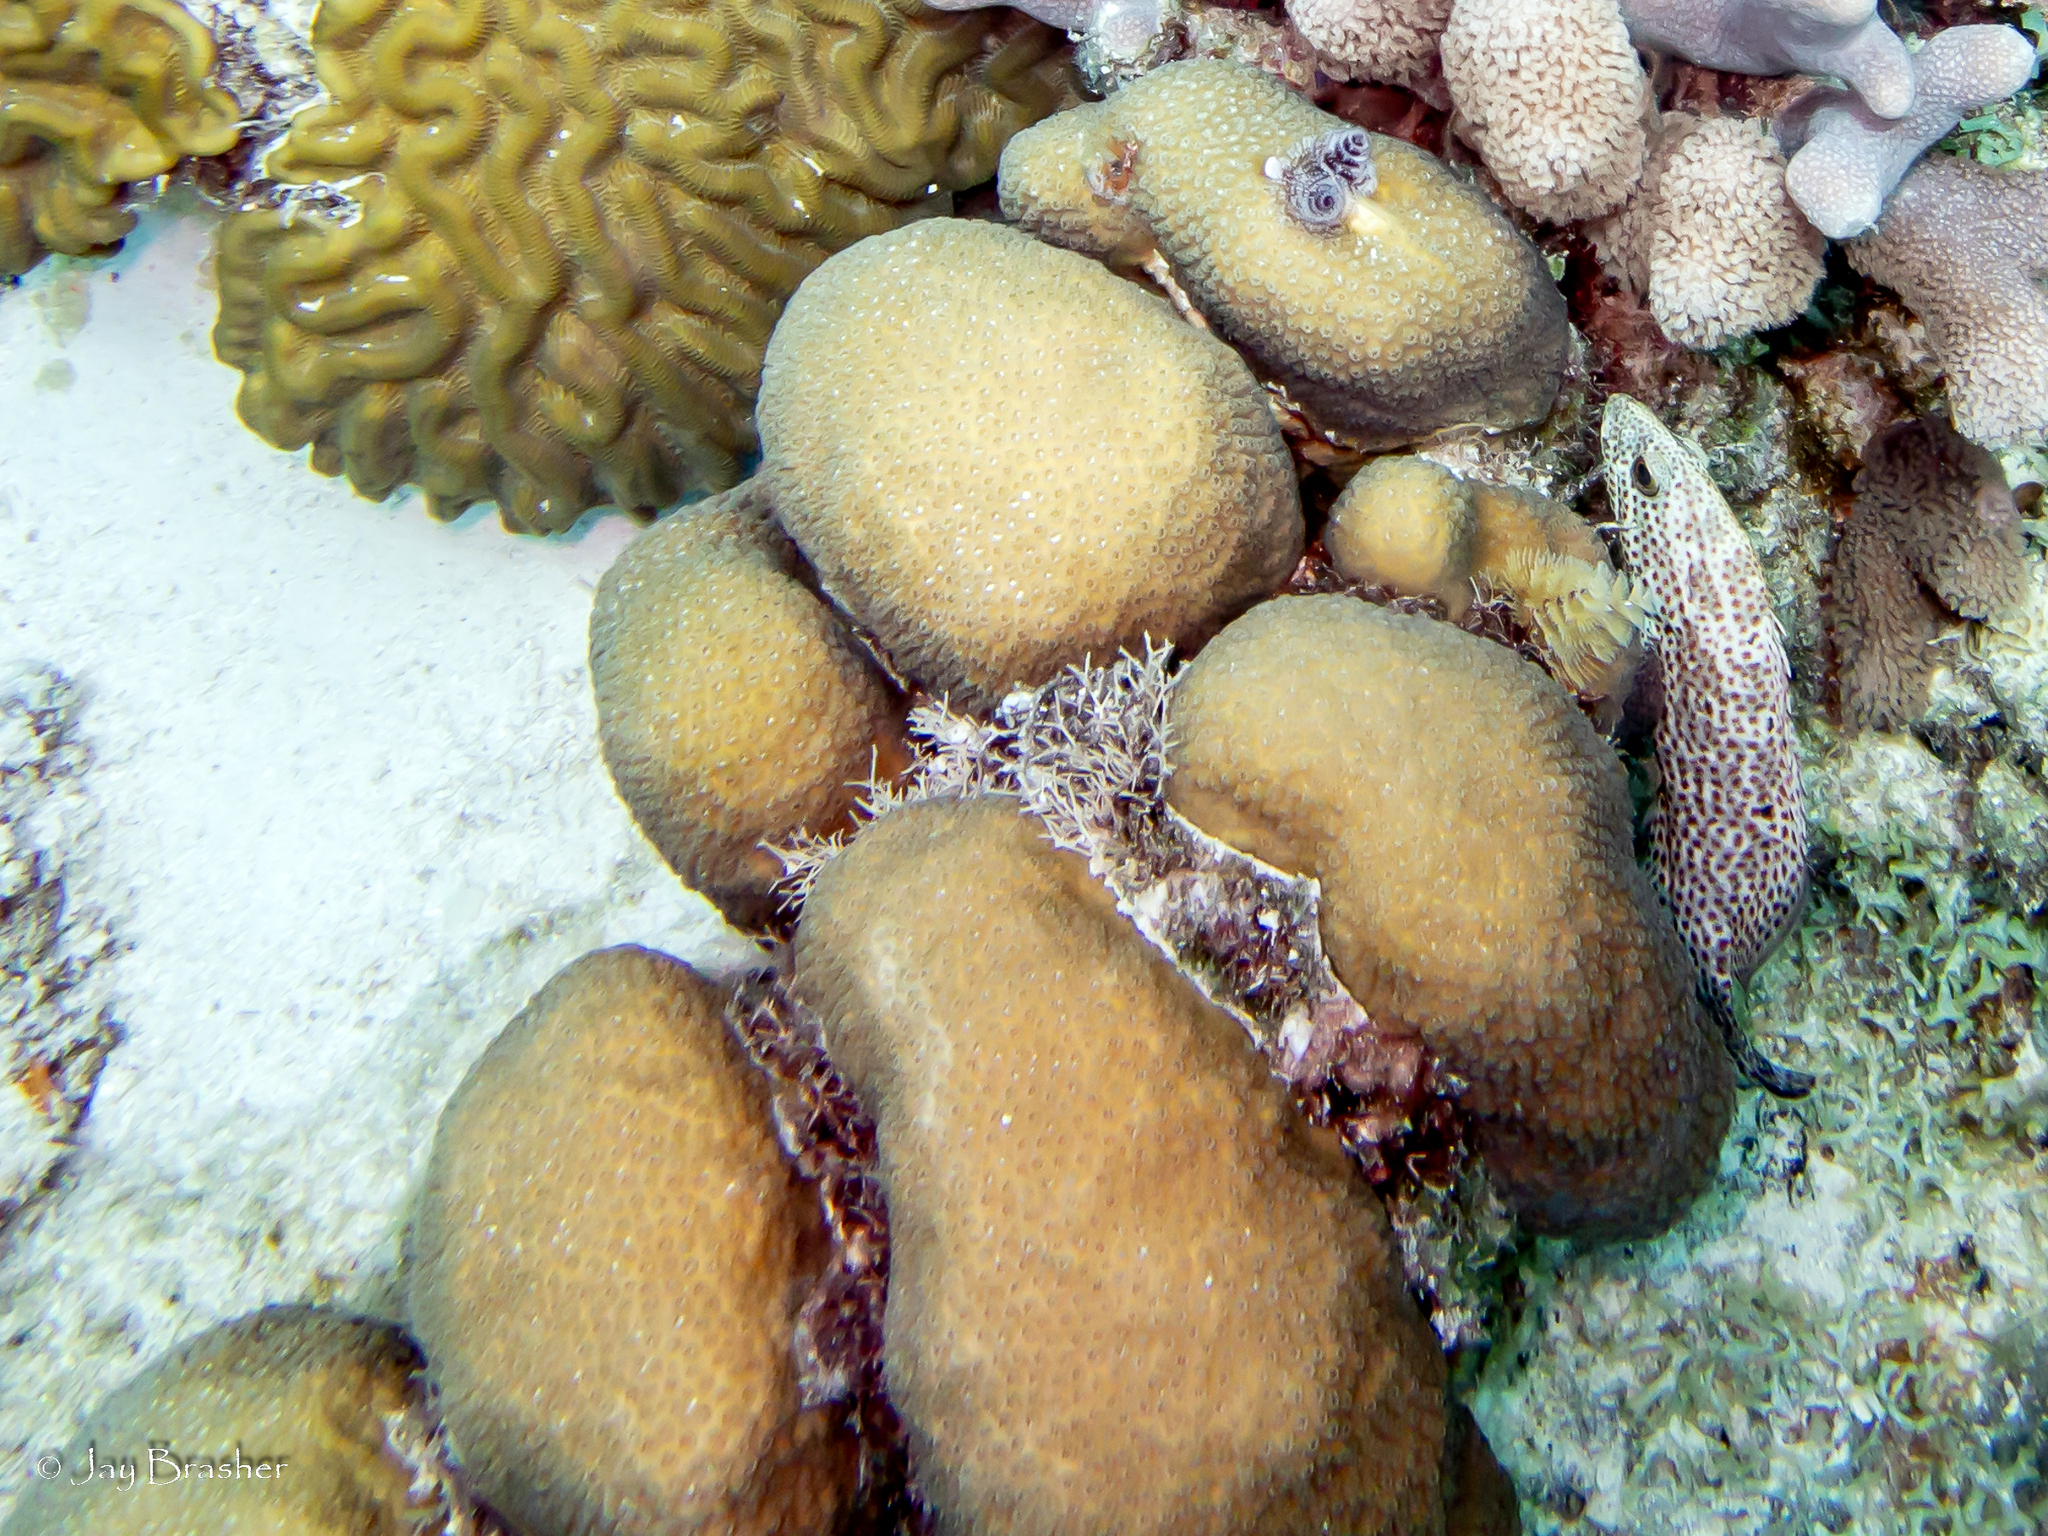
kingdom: Animalia
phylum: Annelida
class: Polychaeta
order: Sabellida
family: Serpulidae
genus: Spirobranchus
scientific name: Spirobranchus giganteus
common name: Christmas tree worm
